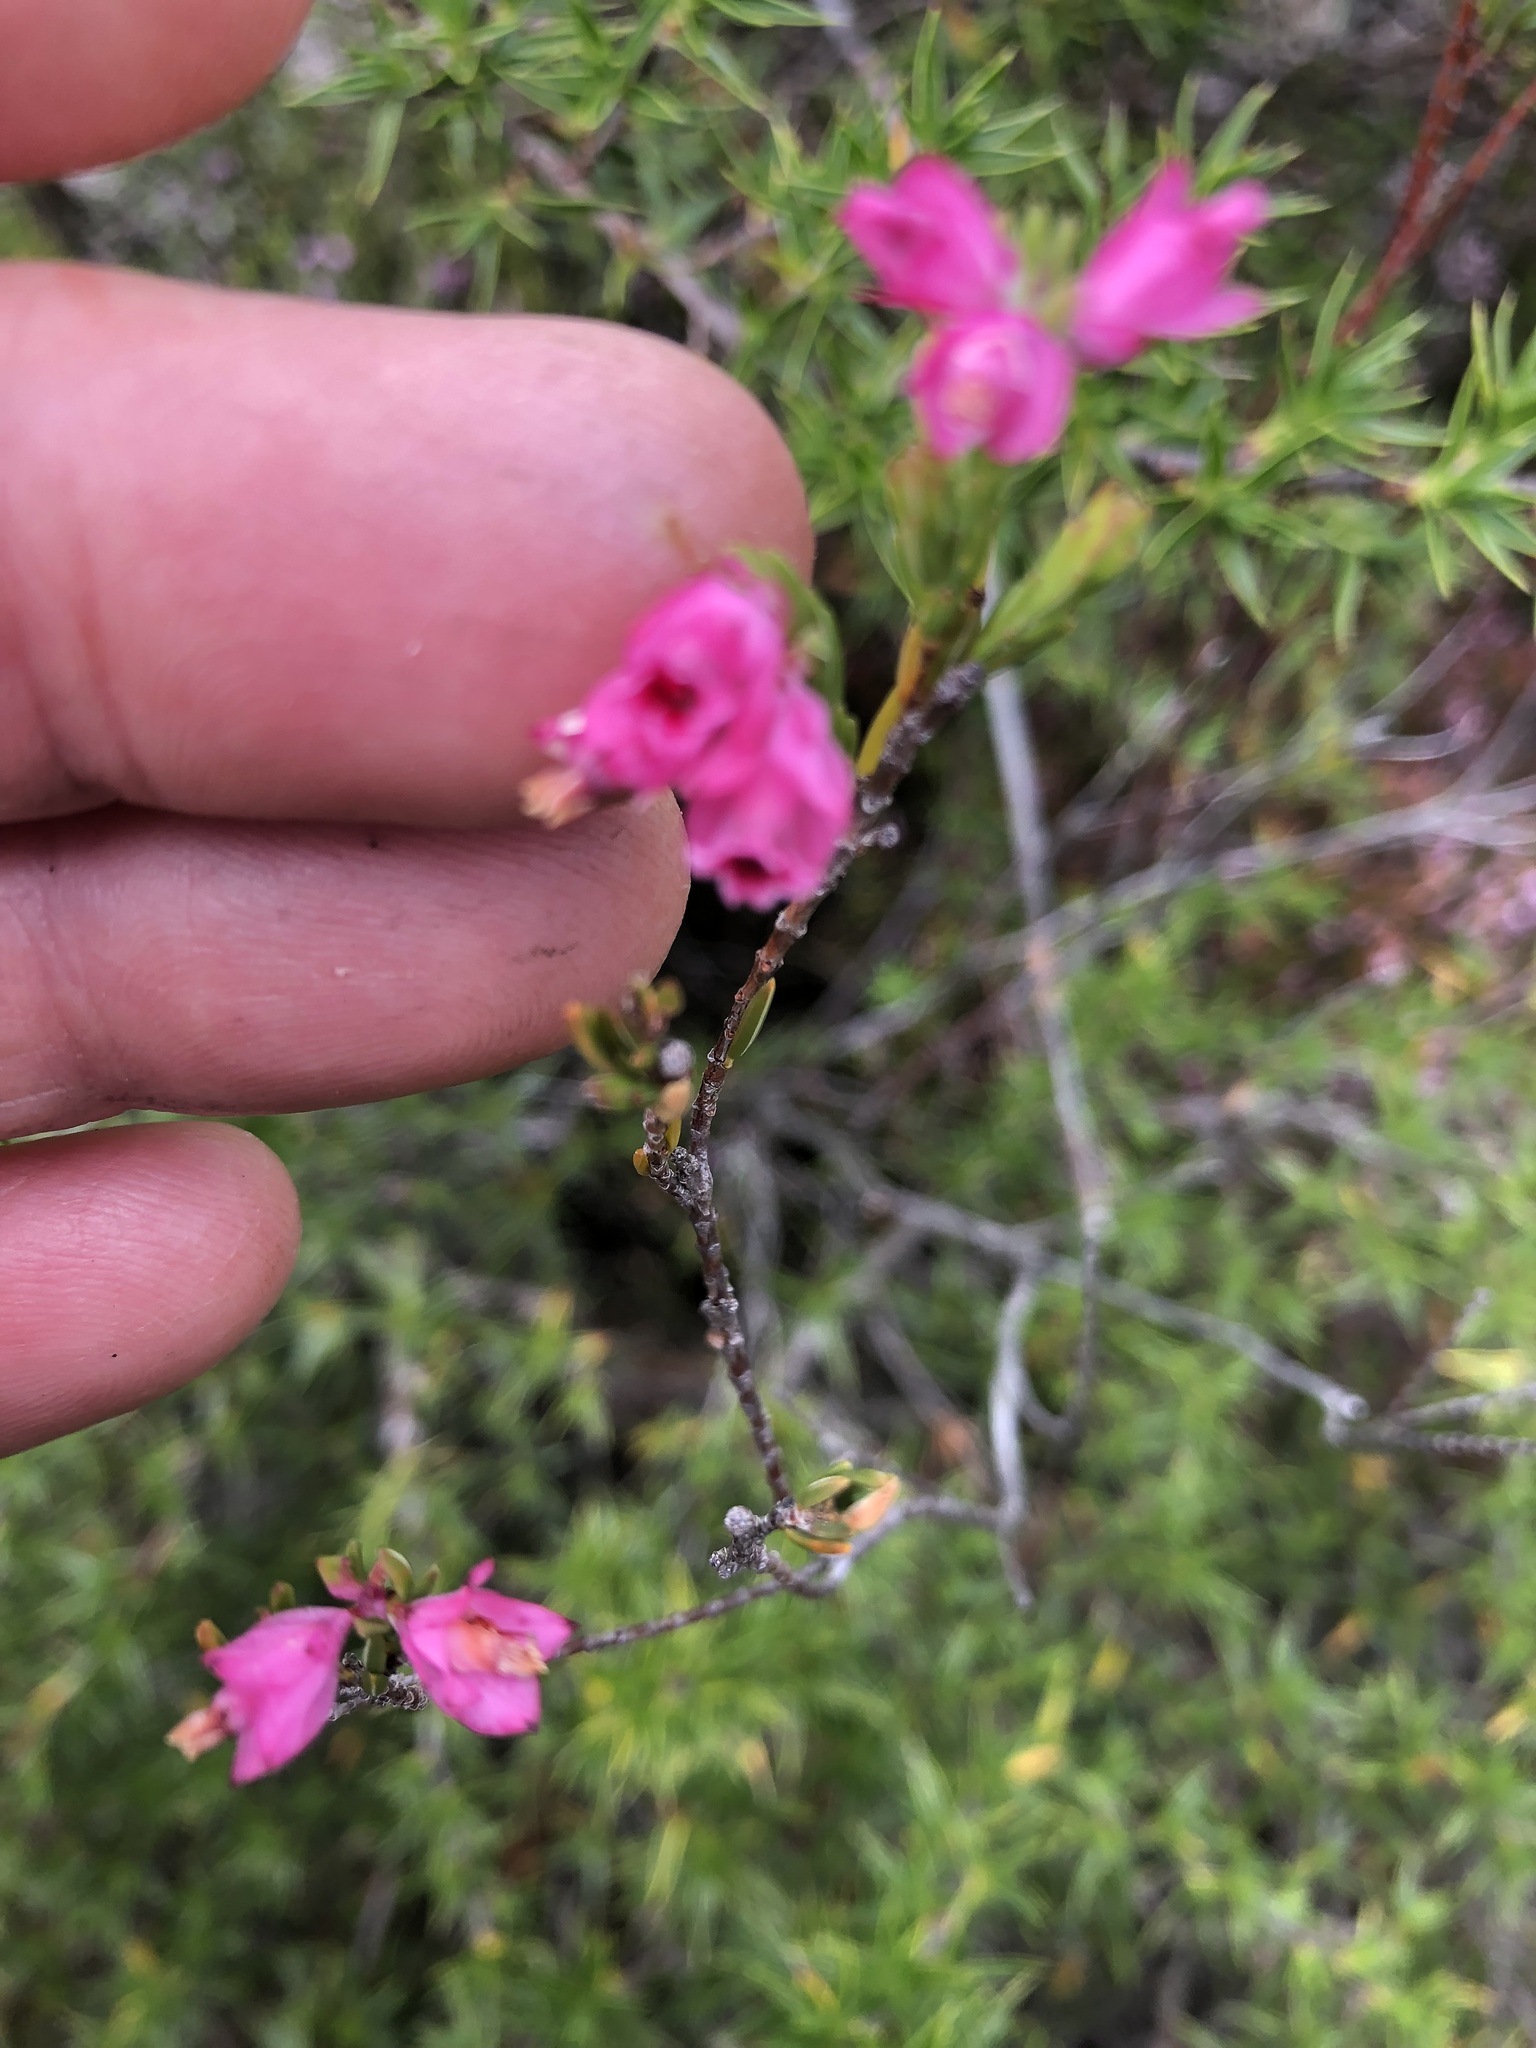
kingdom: Plantae
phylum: Tracheophyta
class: Magnoliopsida
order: Ericales
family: Ericaceae
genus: Erica
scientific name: Erica corifolia
